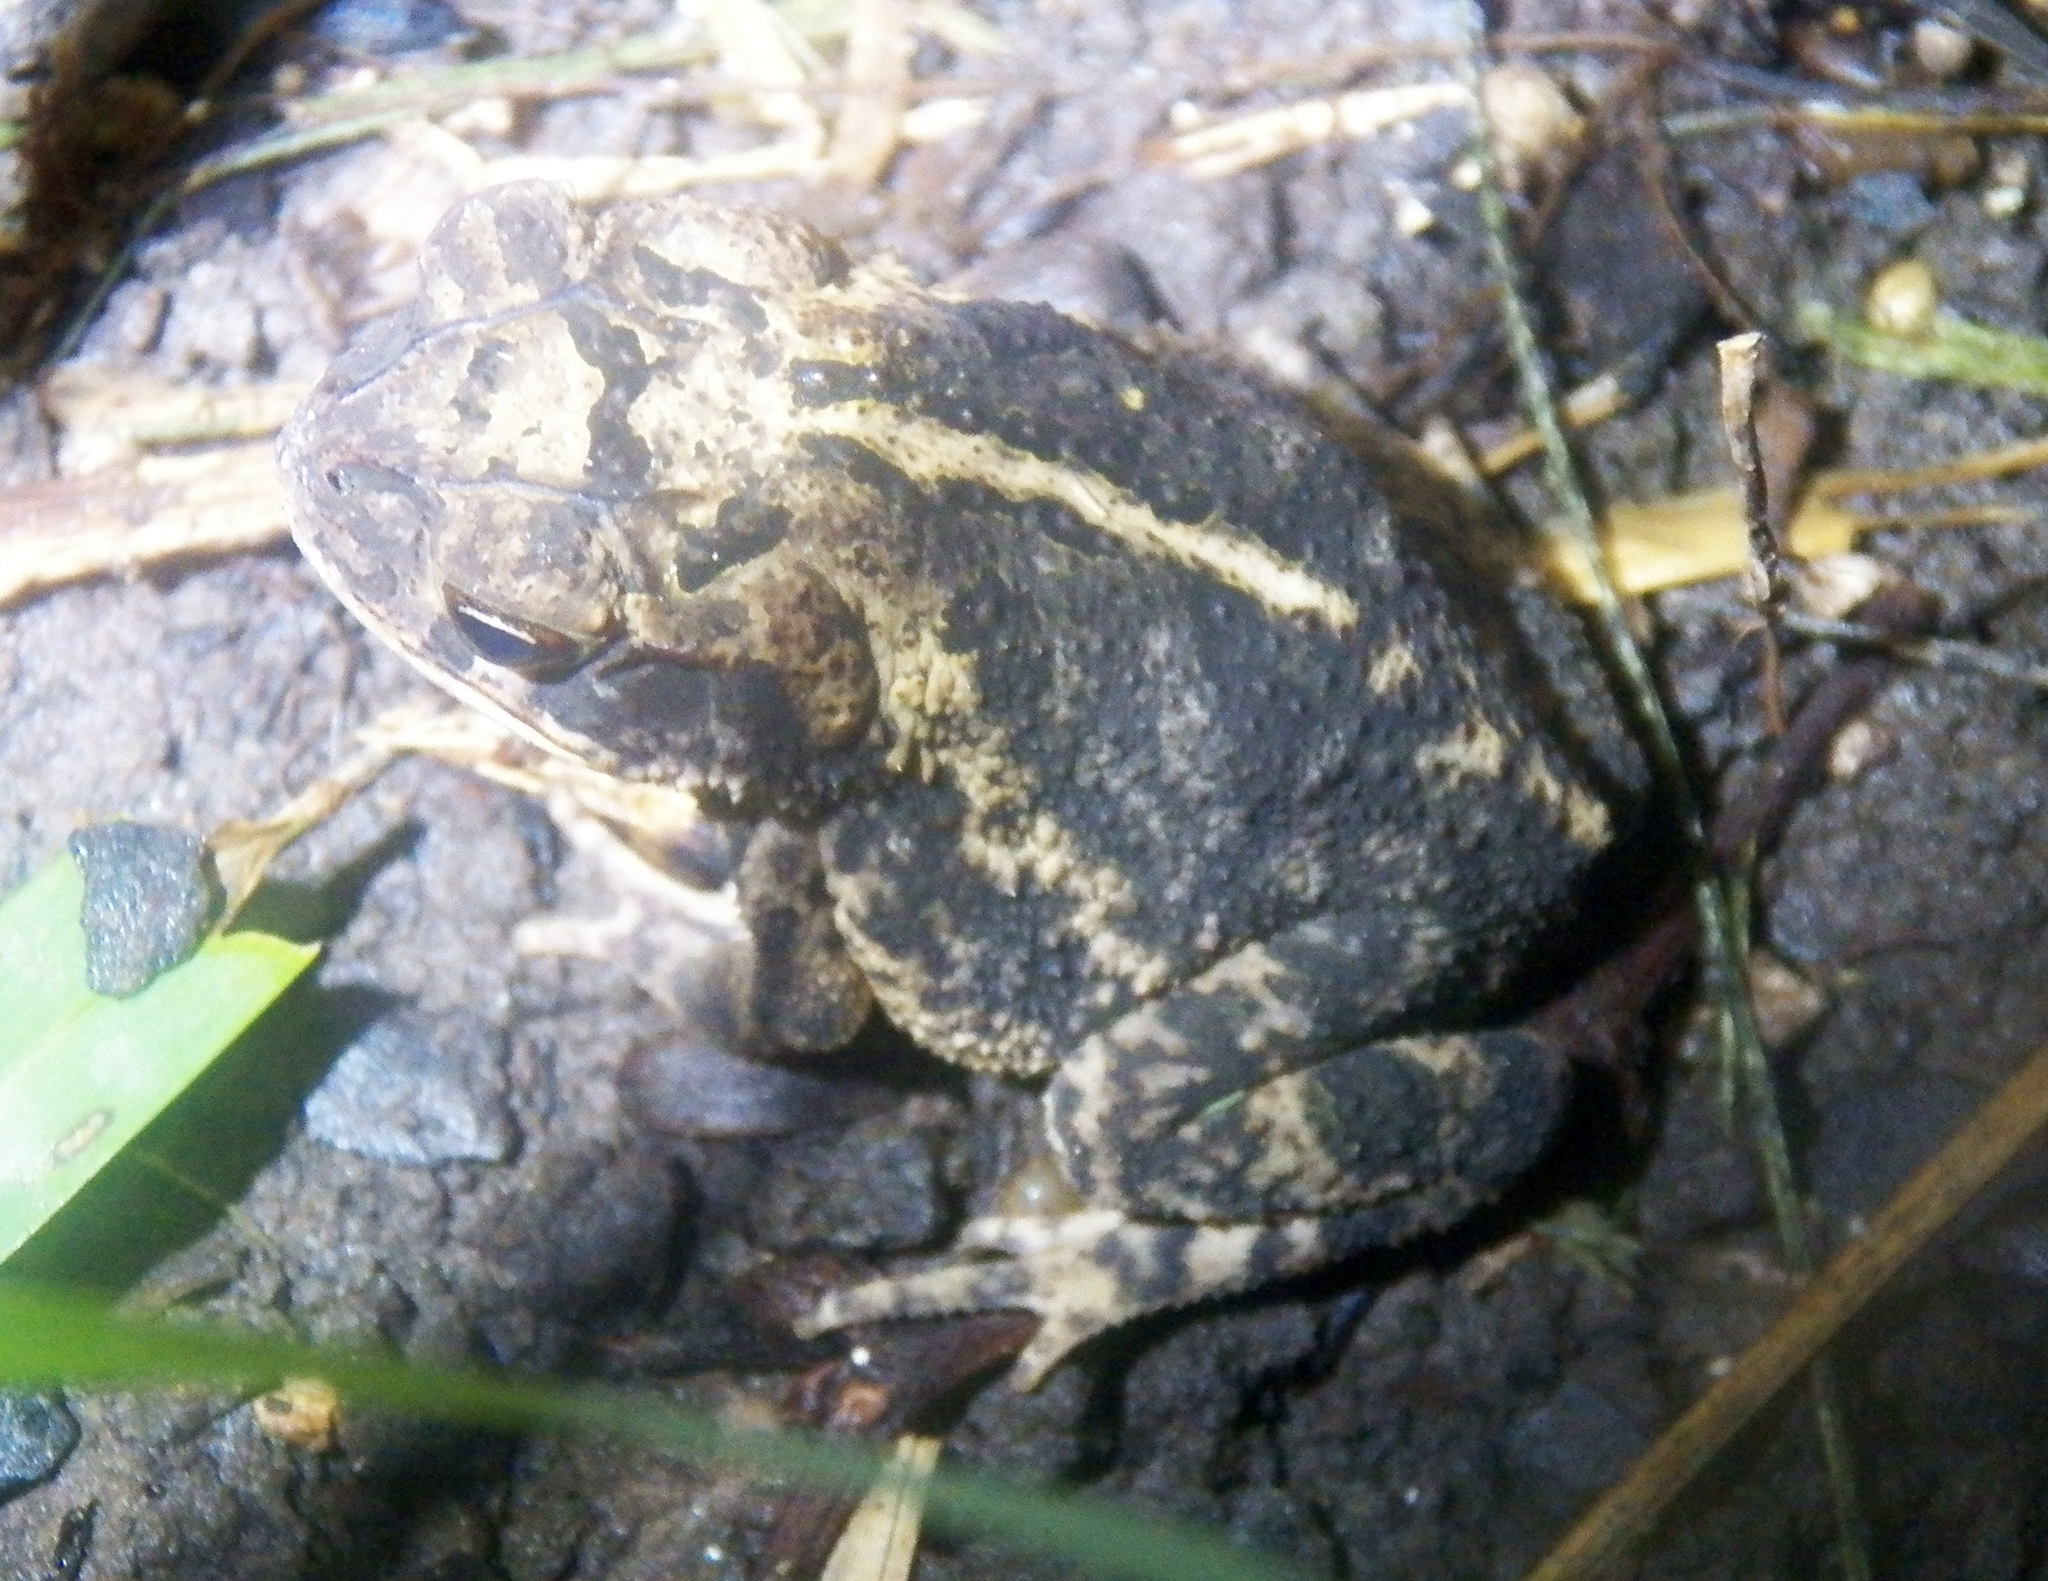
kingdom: Animalia
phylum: Chordata
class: Amphibia
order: Anura
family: Bufonidae
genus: Incilius
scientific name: Incilius nebulifer
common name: Gulf coast toad
